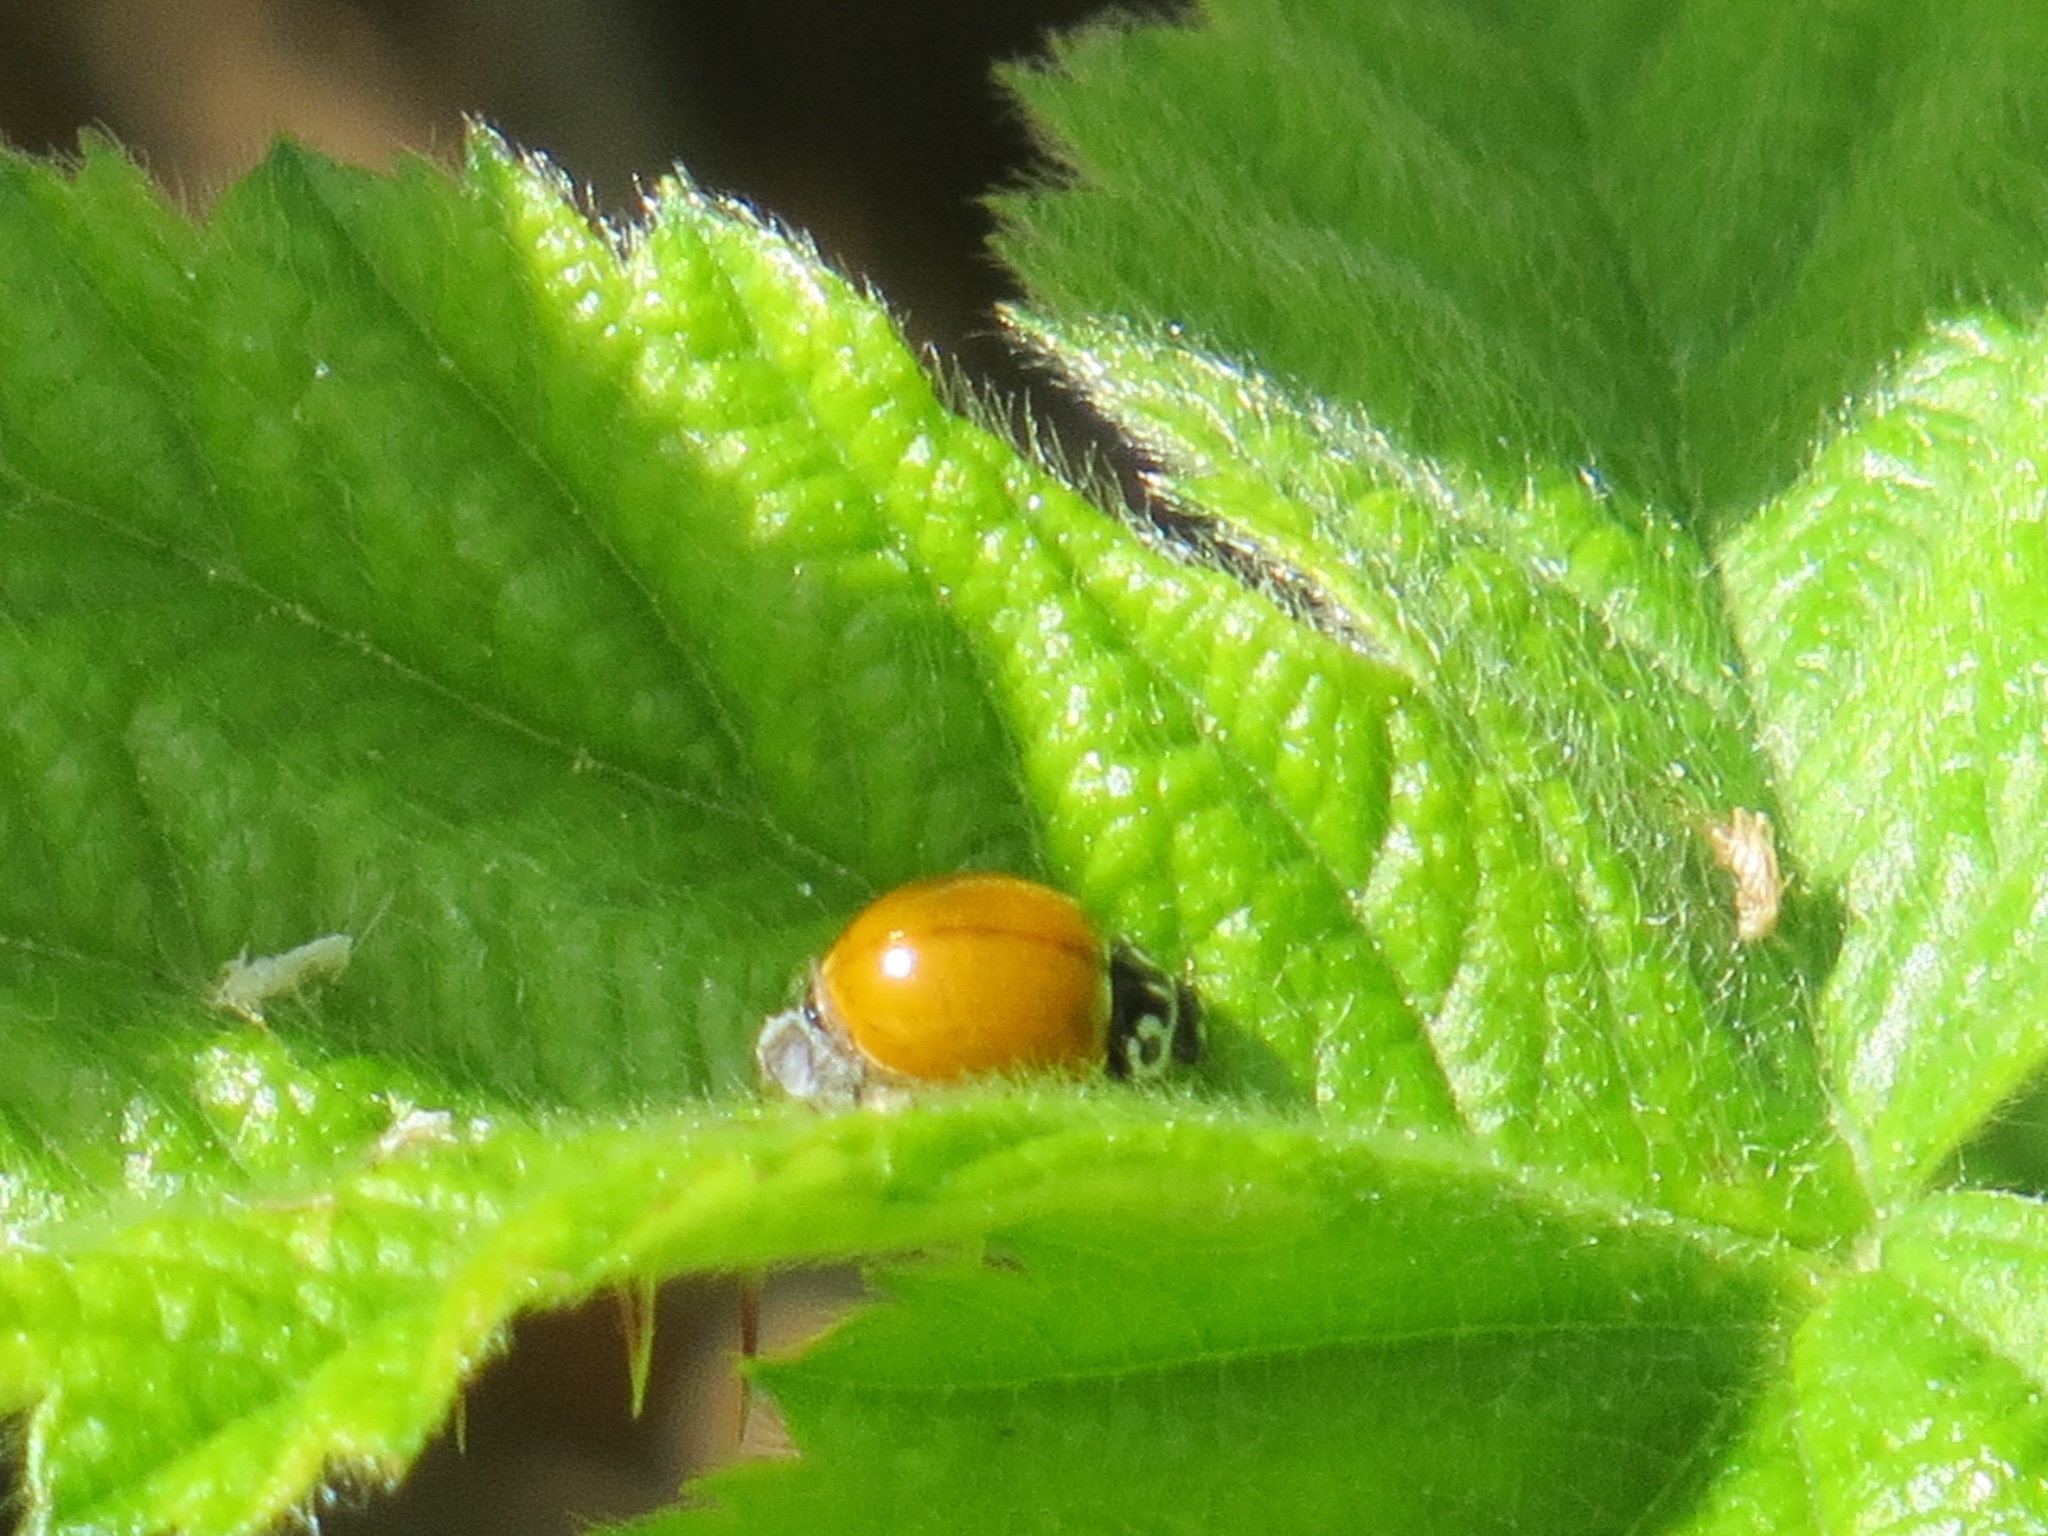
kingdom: Animalia
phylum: Arthropoda
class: Insecta
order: Coleoptera
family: Coccinellidae
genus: Cycloneda
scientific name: Cycloneda polita
